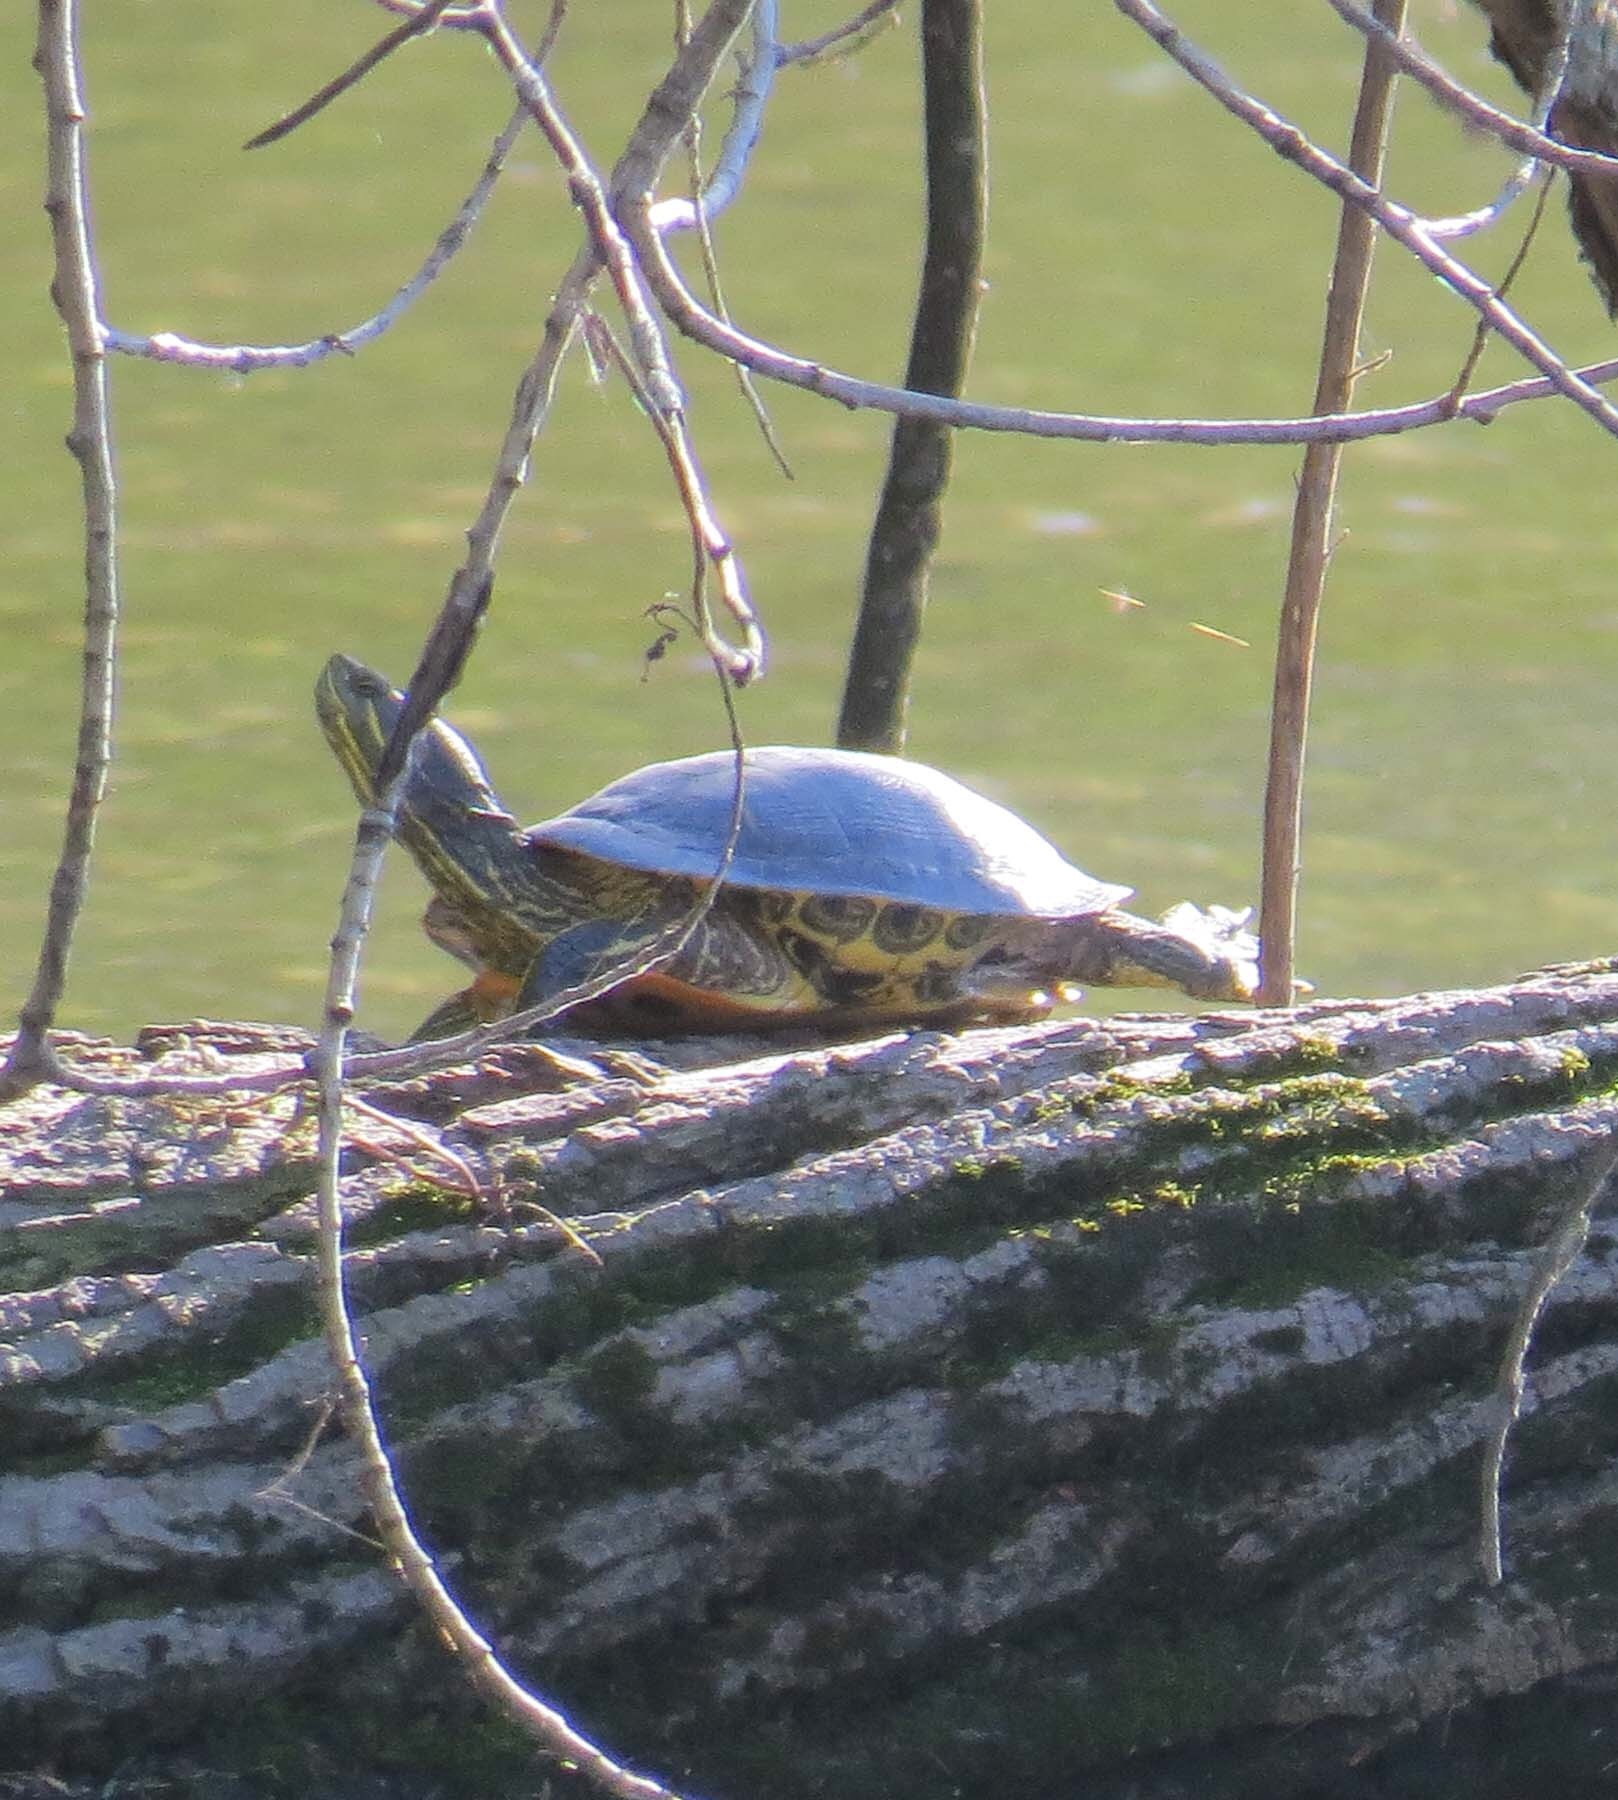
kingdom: Animalia
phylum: Chordata
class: Testudines
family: Emydidae
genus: Trachemys
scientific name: Trachemys scripta
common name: Slider
